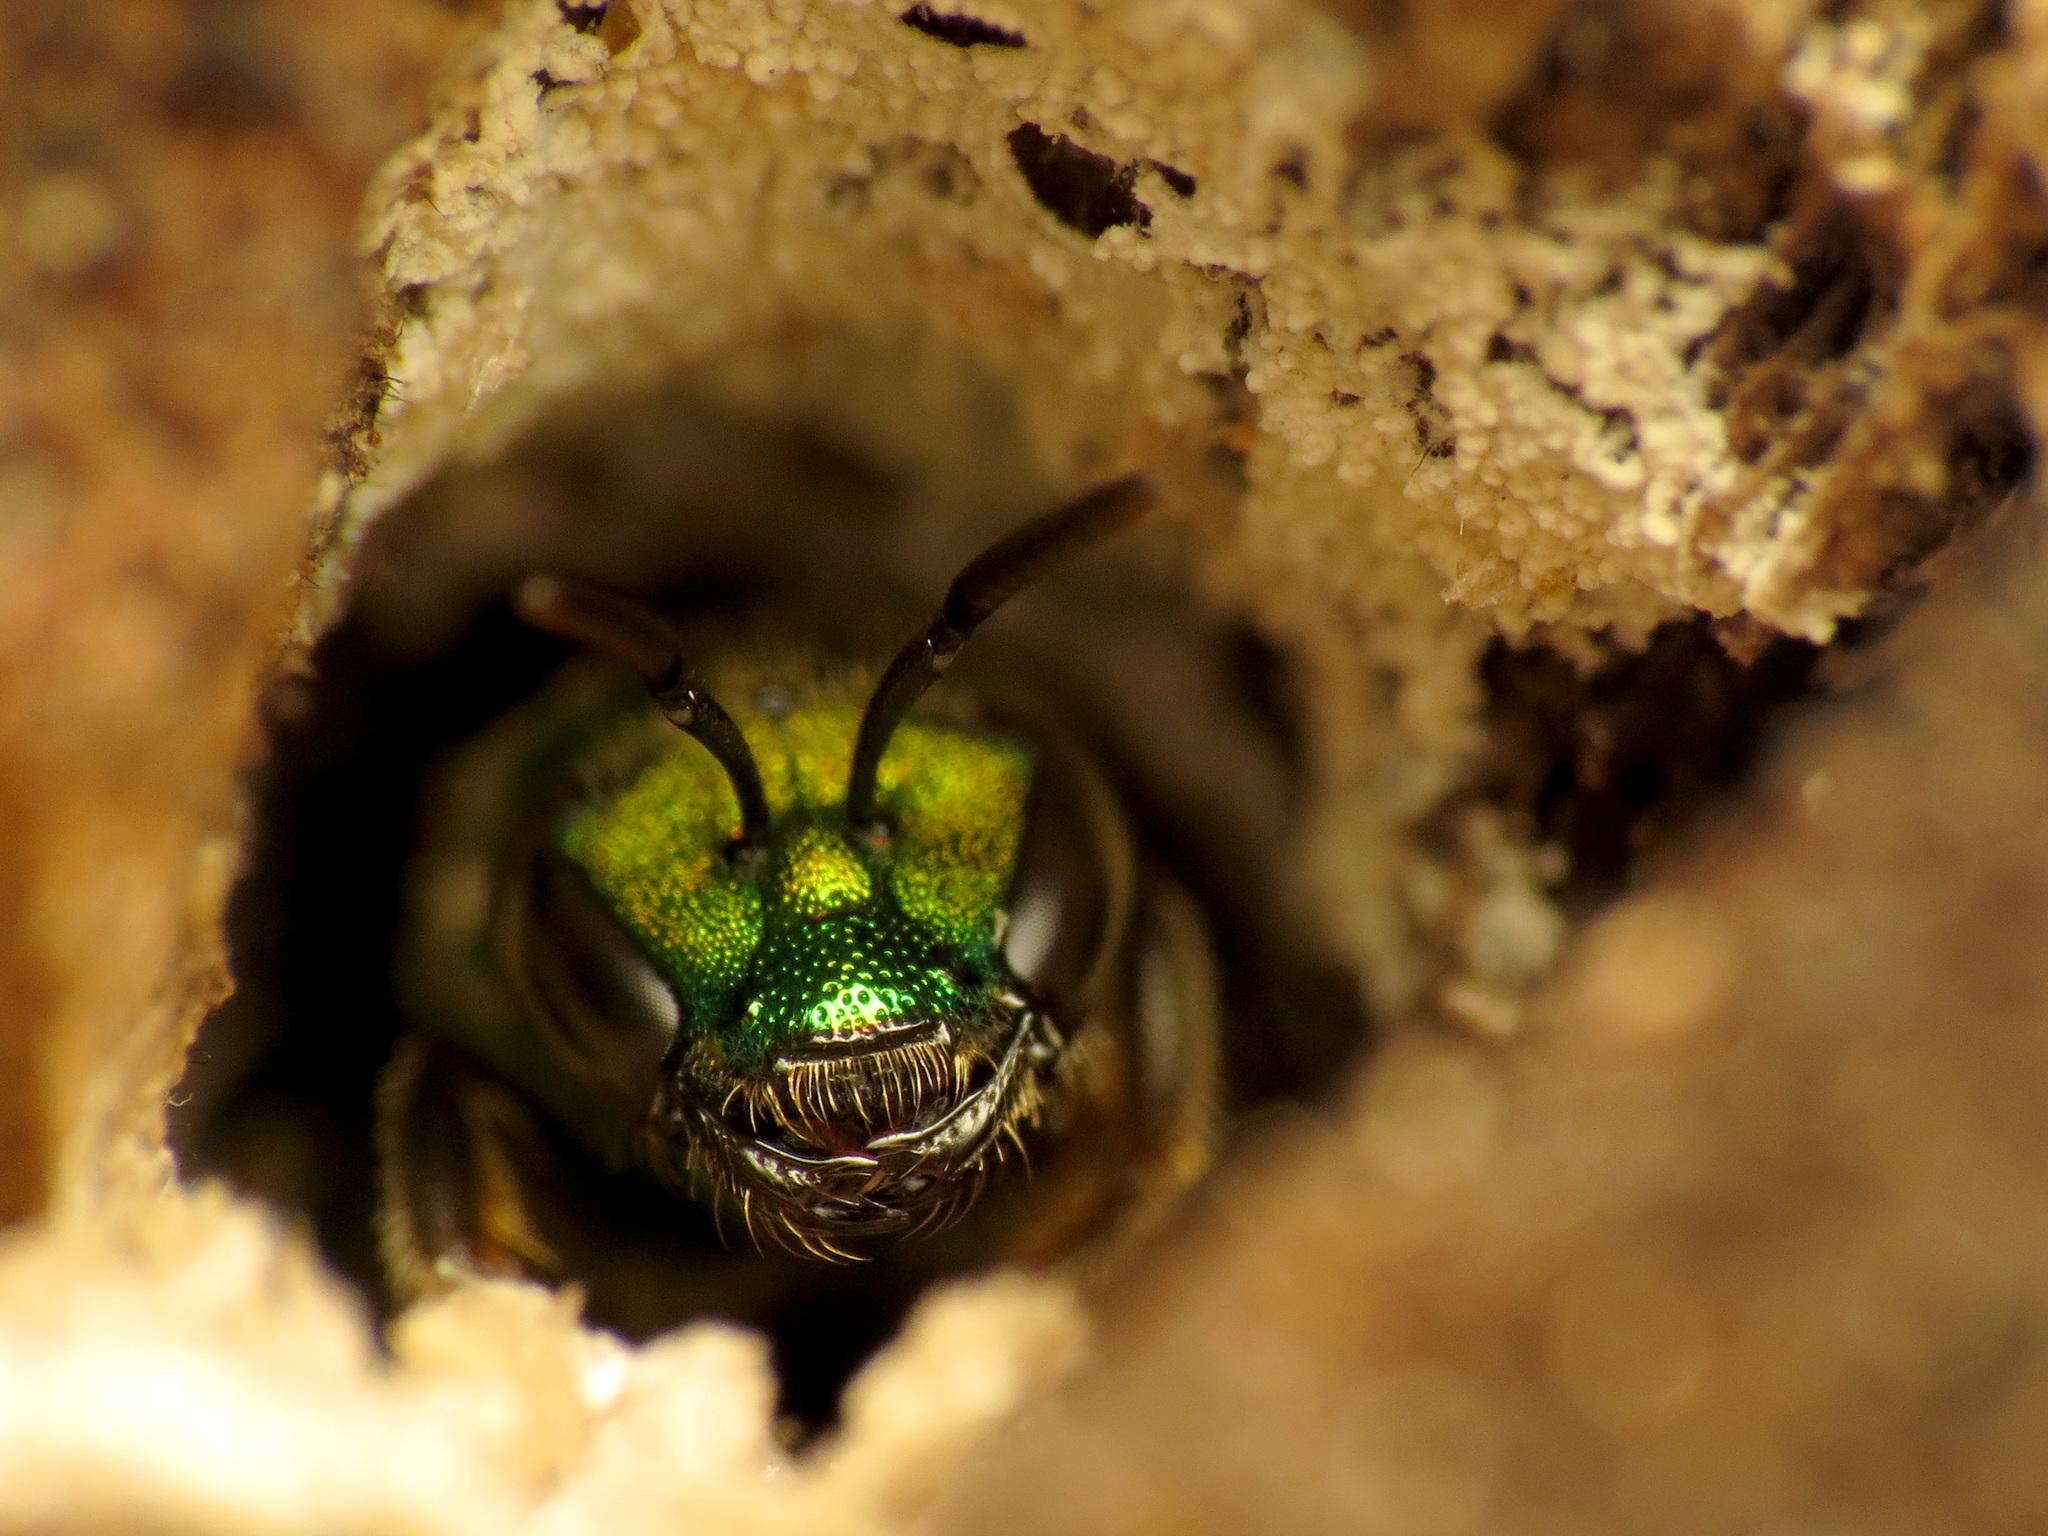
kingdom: Animalia
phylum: Arthropoda
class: Insecta
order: Hymenoptera
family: Halictidae
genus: Augochlora
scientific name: Augochlora pura
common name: Pure green sweat bee
